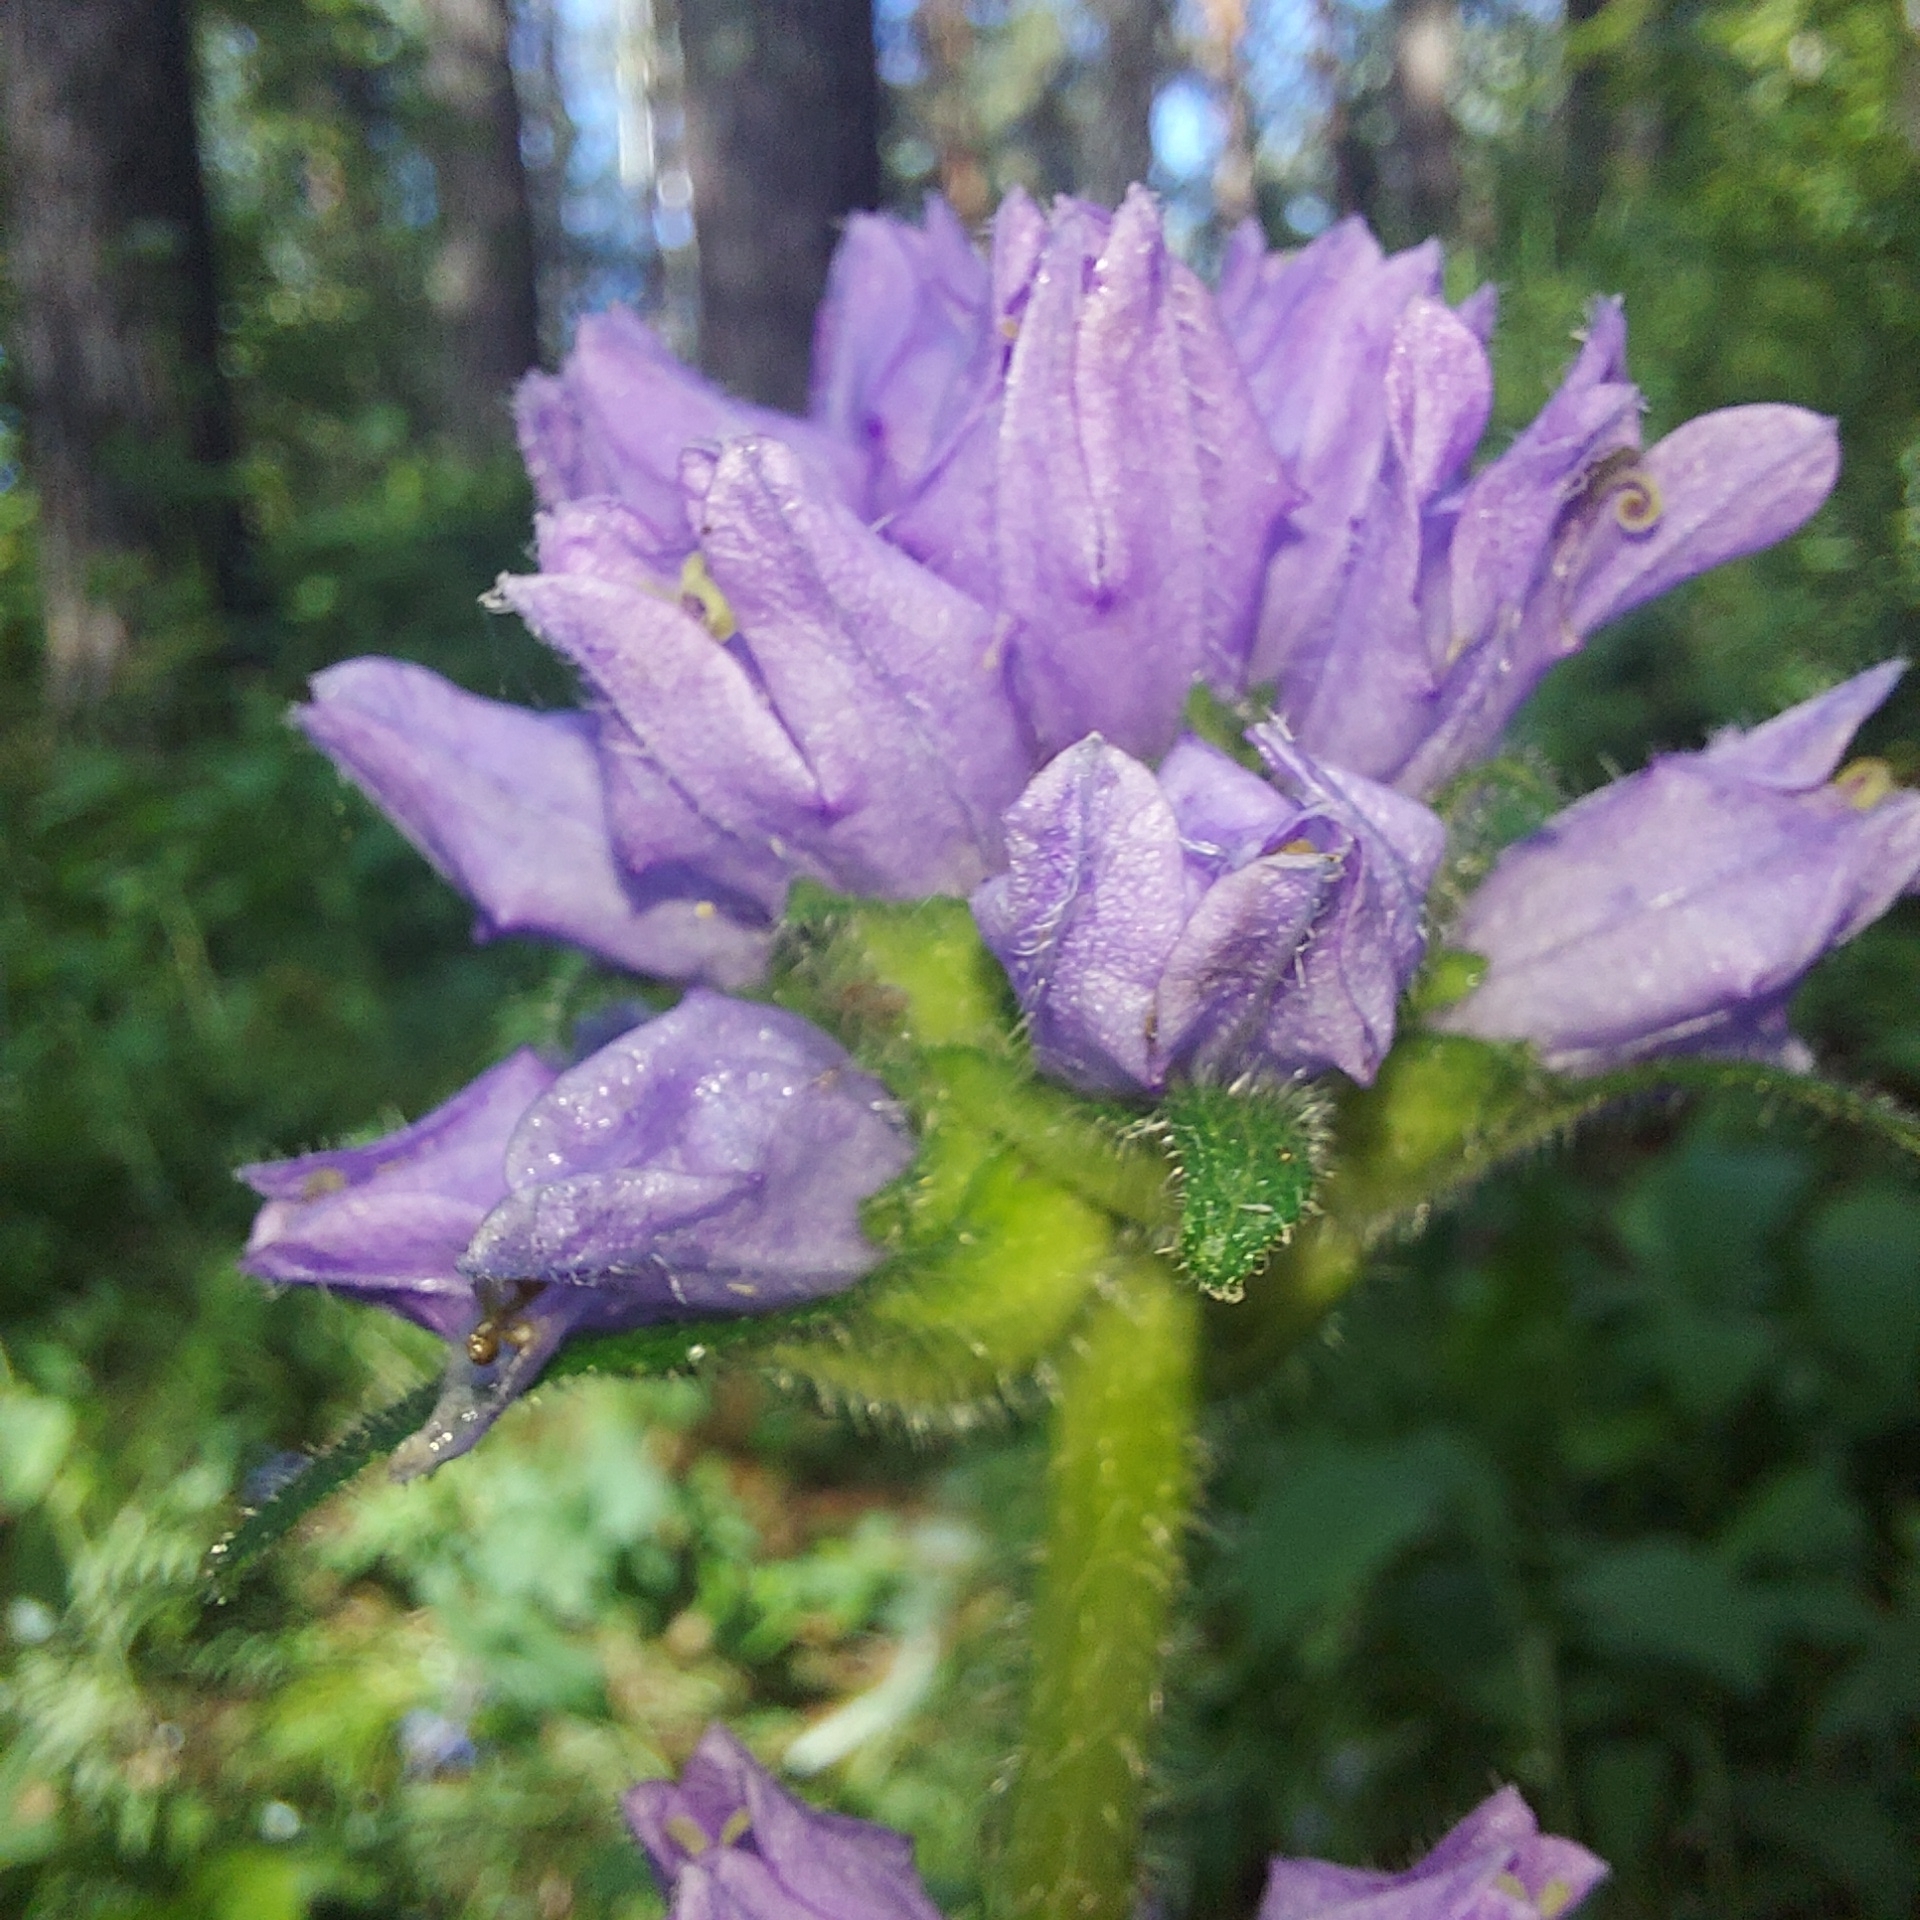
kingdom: Plantae
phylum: Tracheophyta
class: Magnoliopsida
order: Asterales
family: Campanulaceae
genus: Campanula
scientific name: Campanula cervicaria
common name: Bristly bellflower
